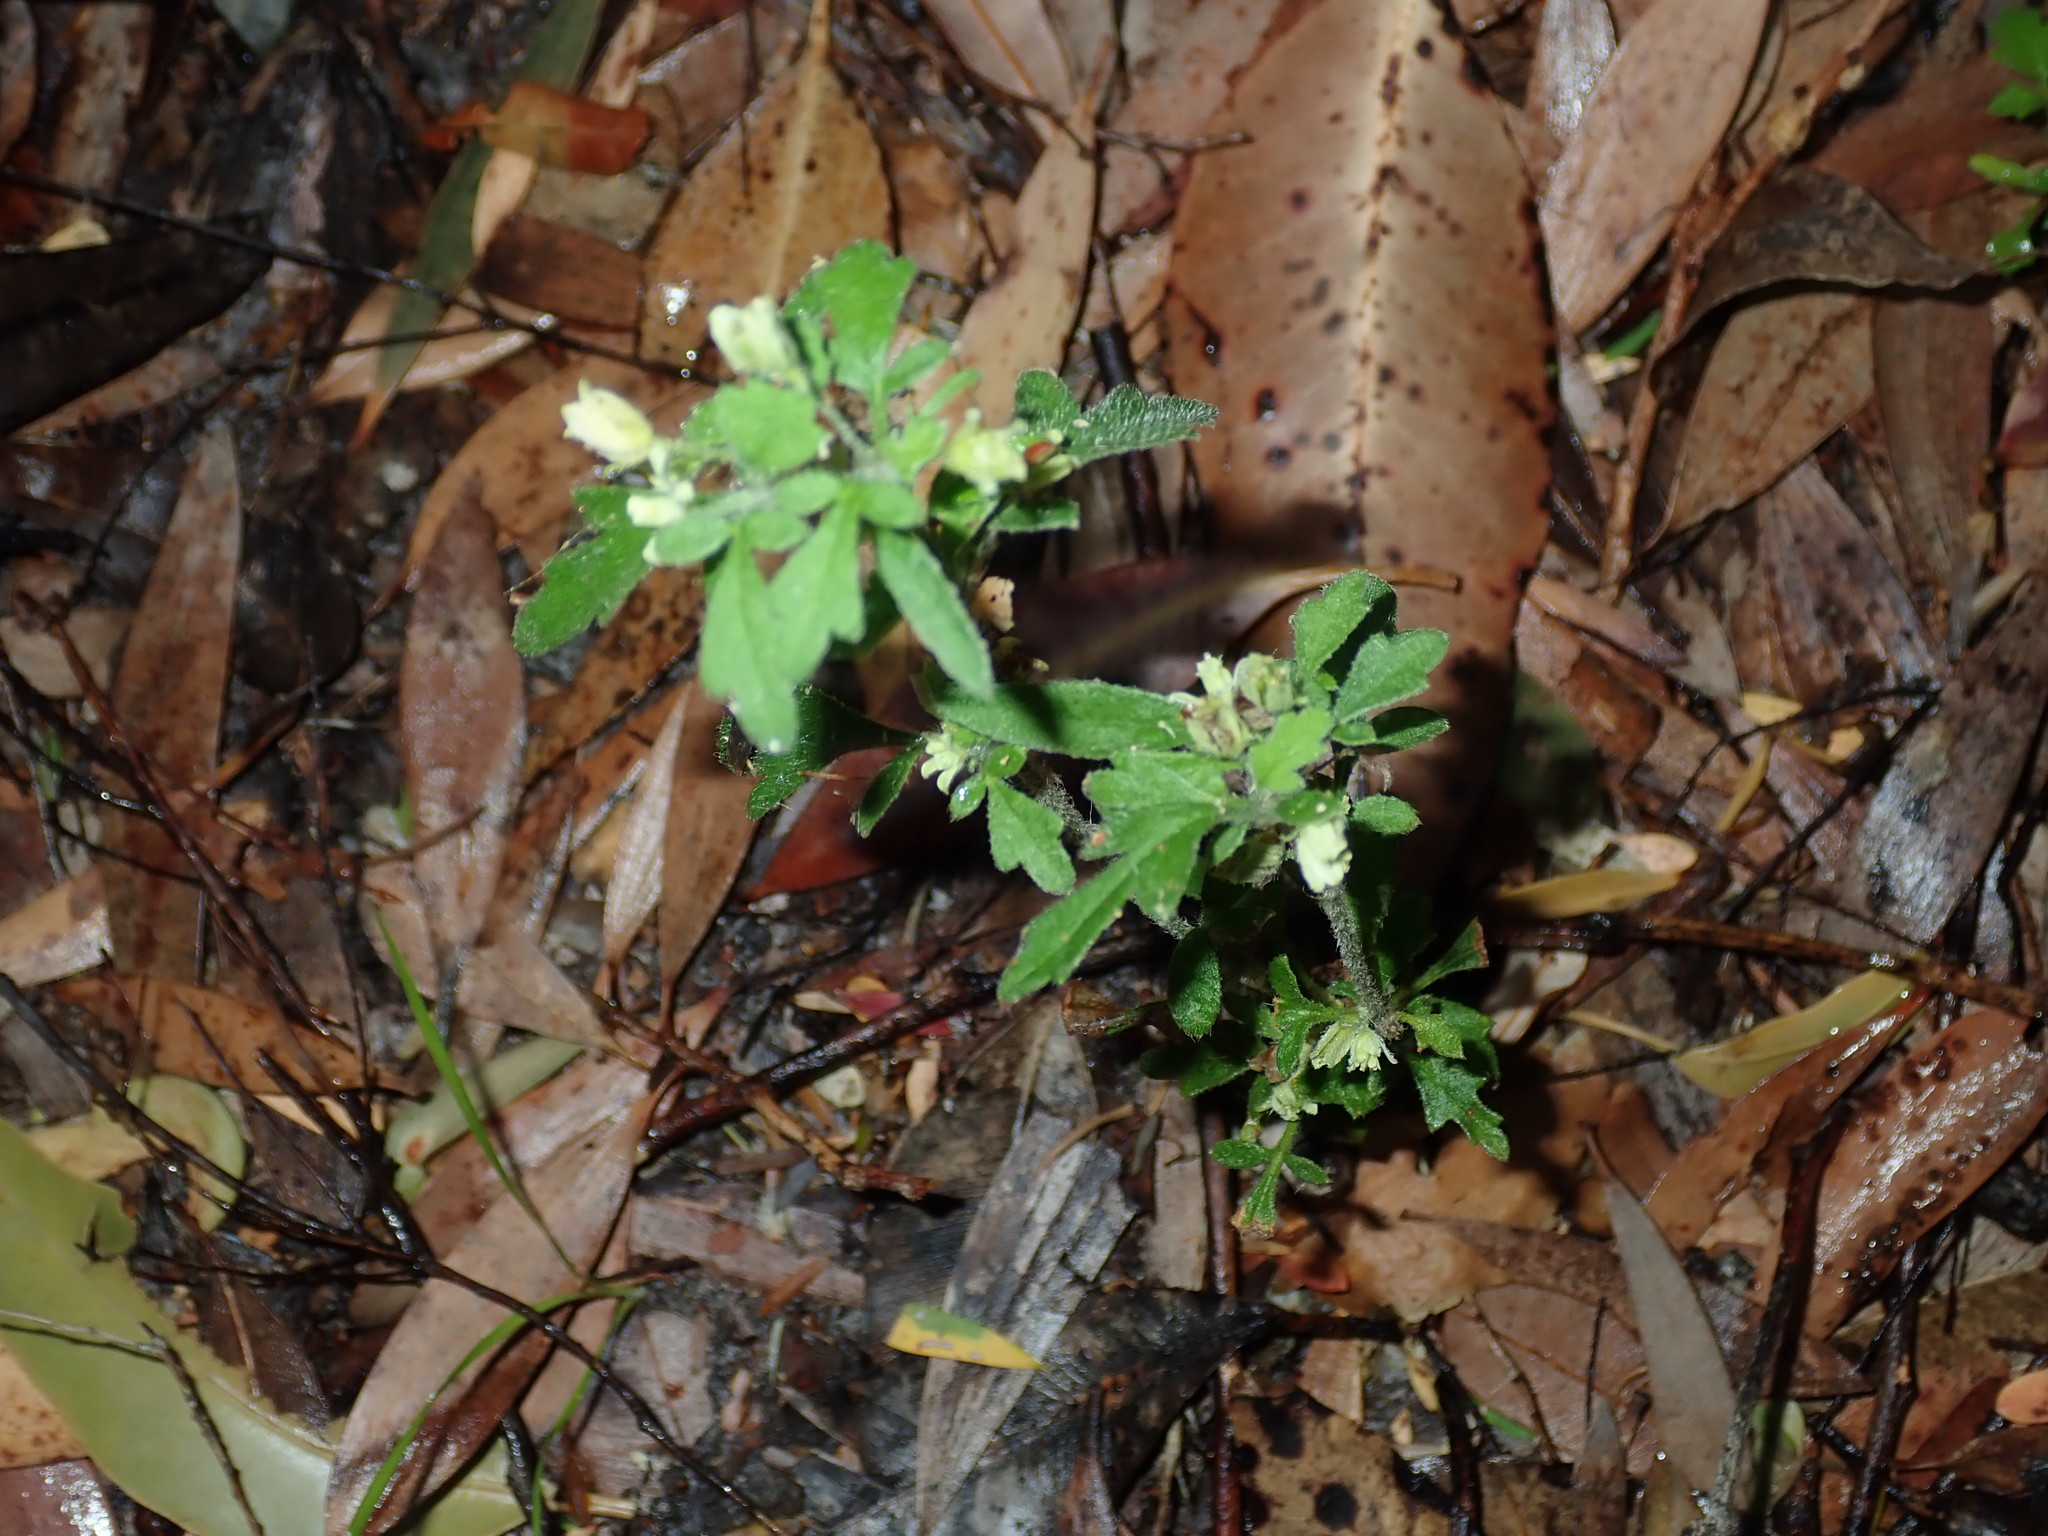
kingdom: Plantae
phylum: Tracheophyta
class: Magnoliopsida
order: Apiales
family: Apiaceae
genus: Xanthosia
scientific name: Xanthosia pilosa
